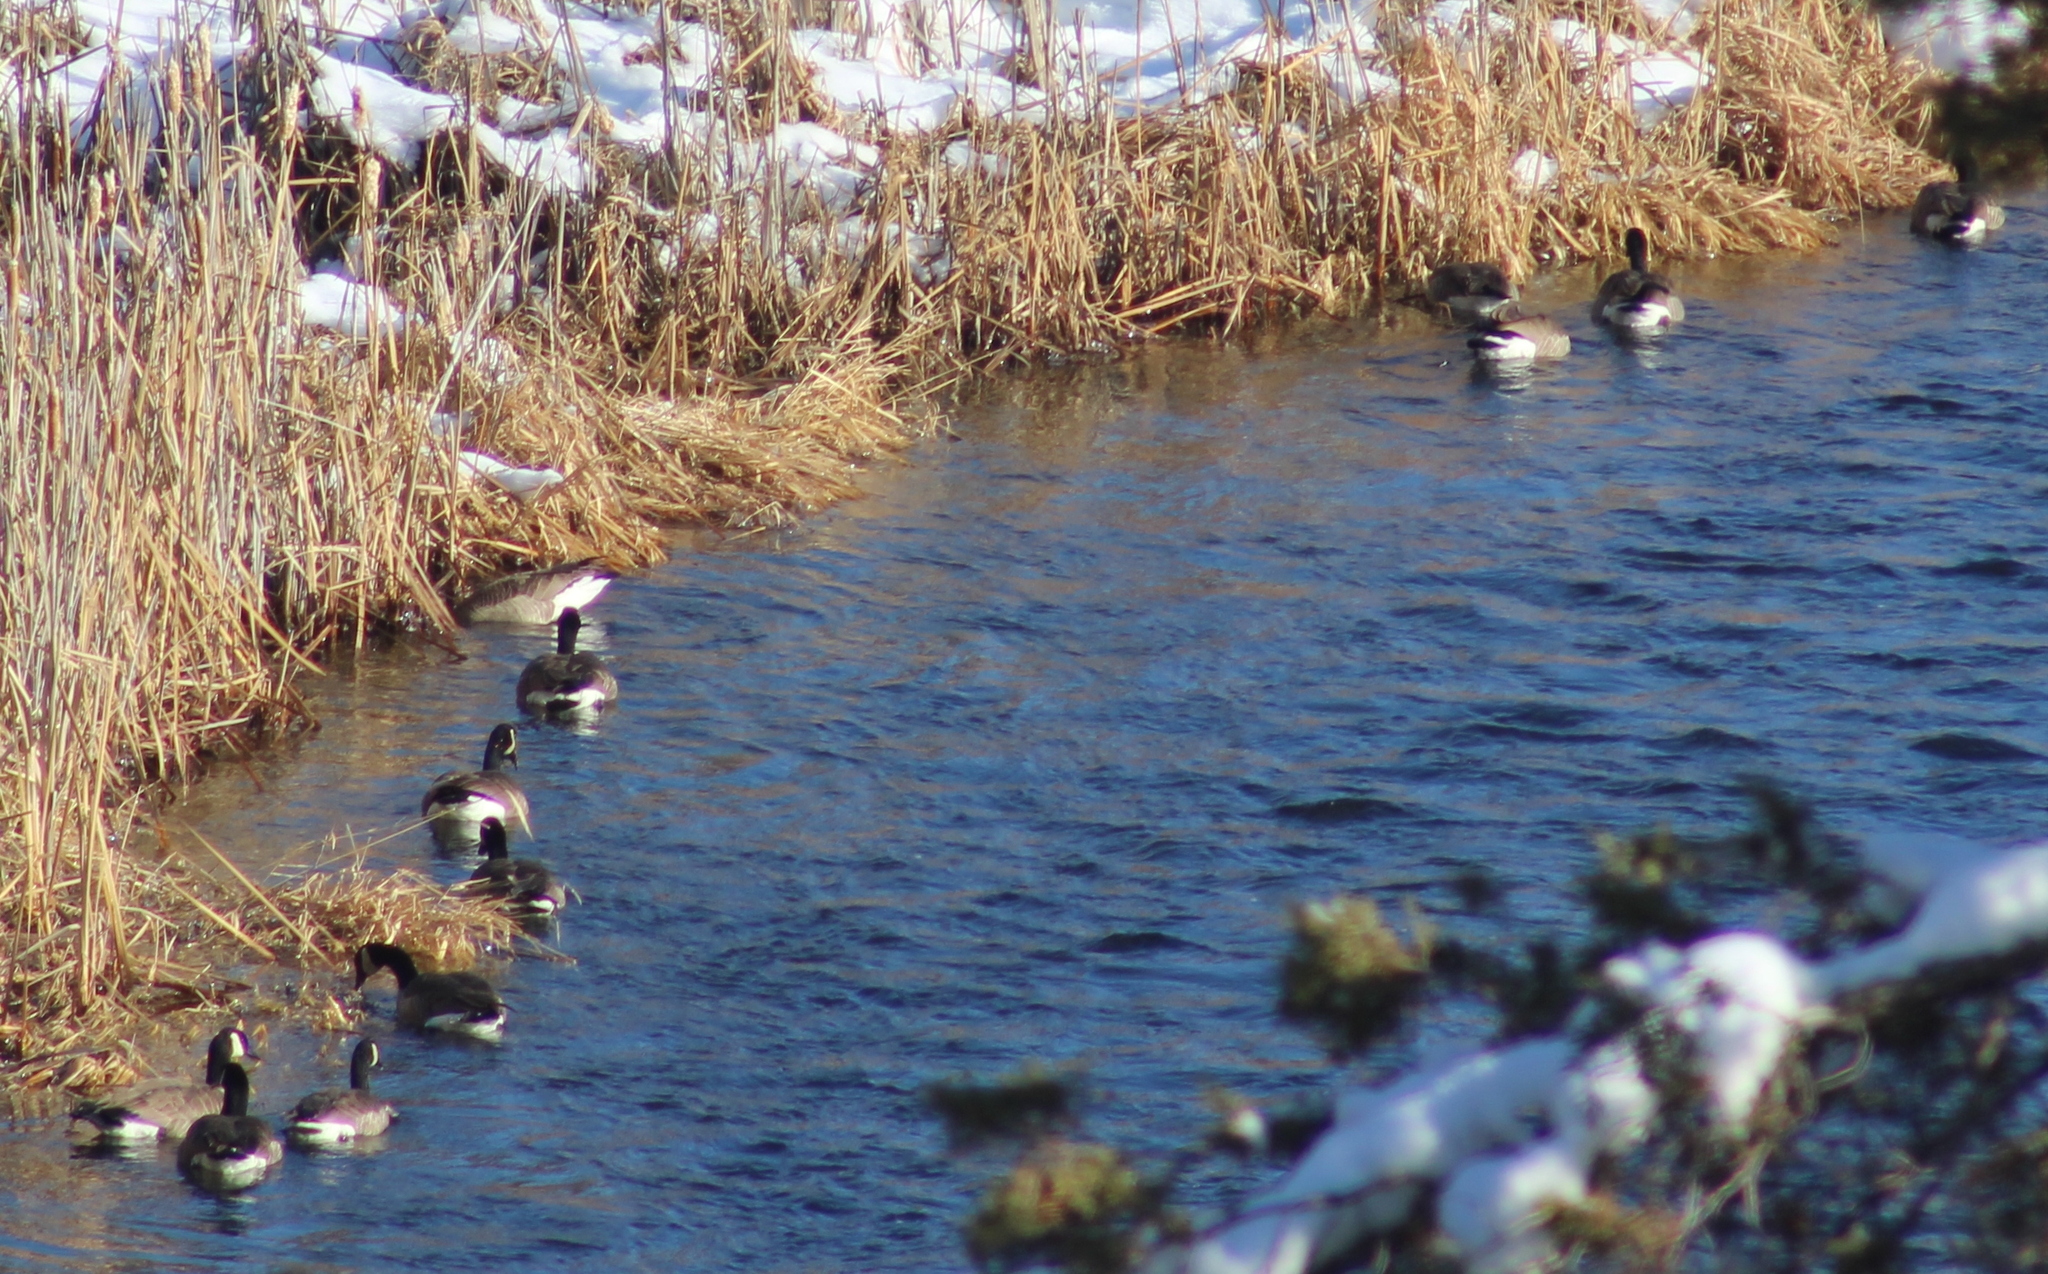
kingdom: Animalia
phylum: Chordata
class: Aves
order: Anseriformes
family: Anatidae
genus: Branta
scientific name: Branta canadensis
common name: Canada goose
